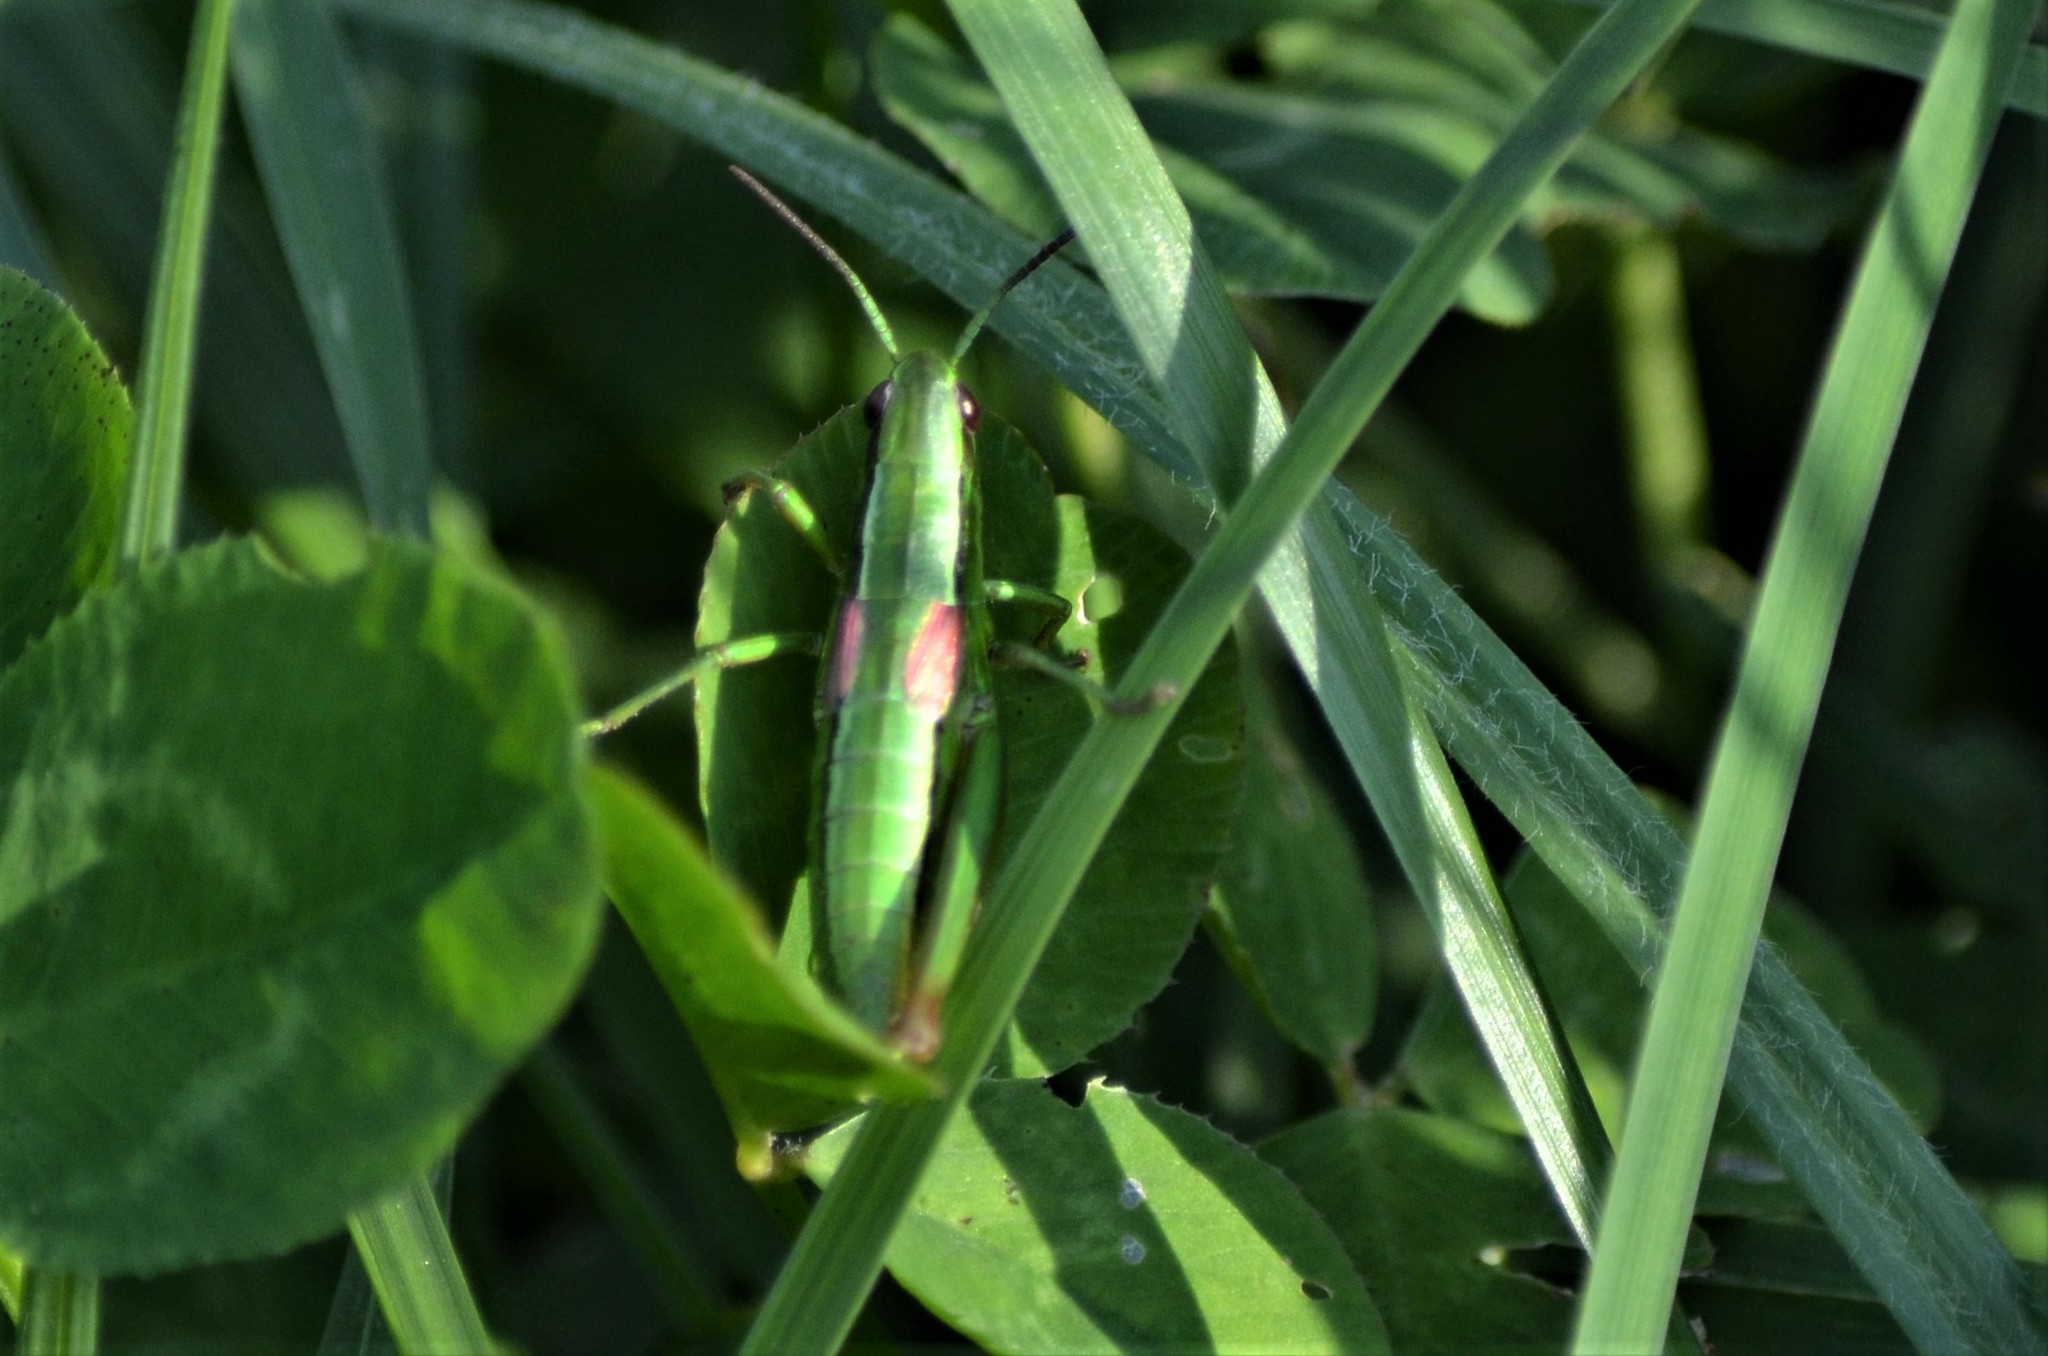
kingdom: Animalia
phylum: Arthropoda
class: Insecta
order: Orthoptera
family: Acrididae
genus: Euthystira
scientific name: Euthystira brachyptera
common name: Small gold grasshopper
